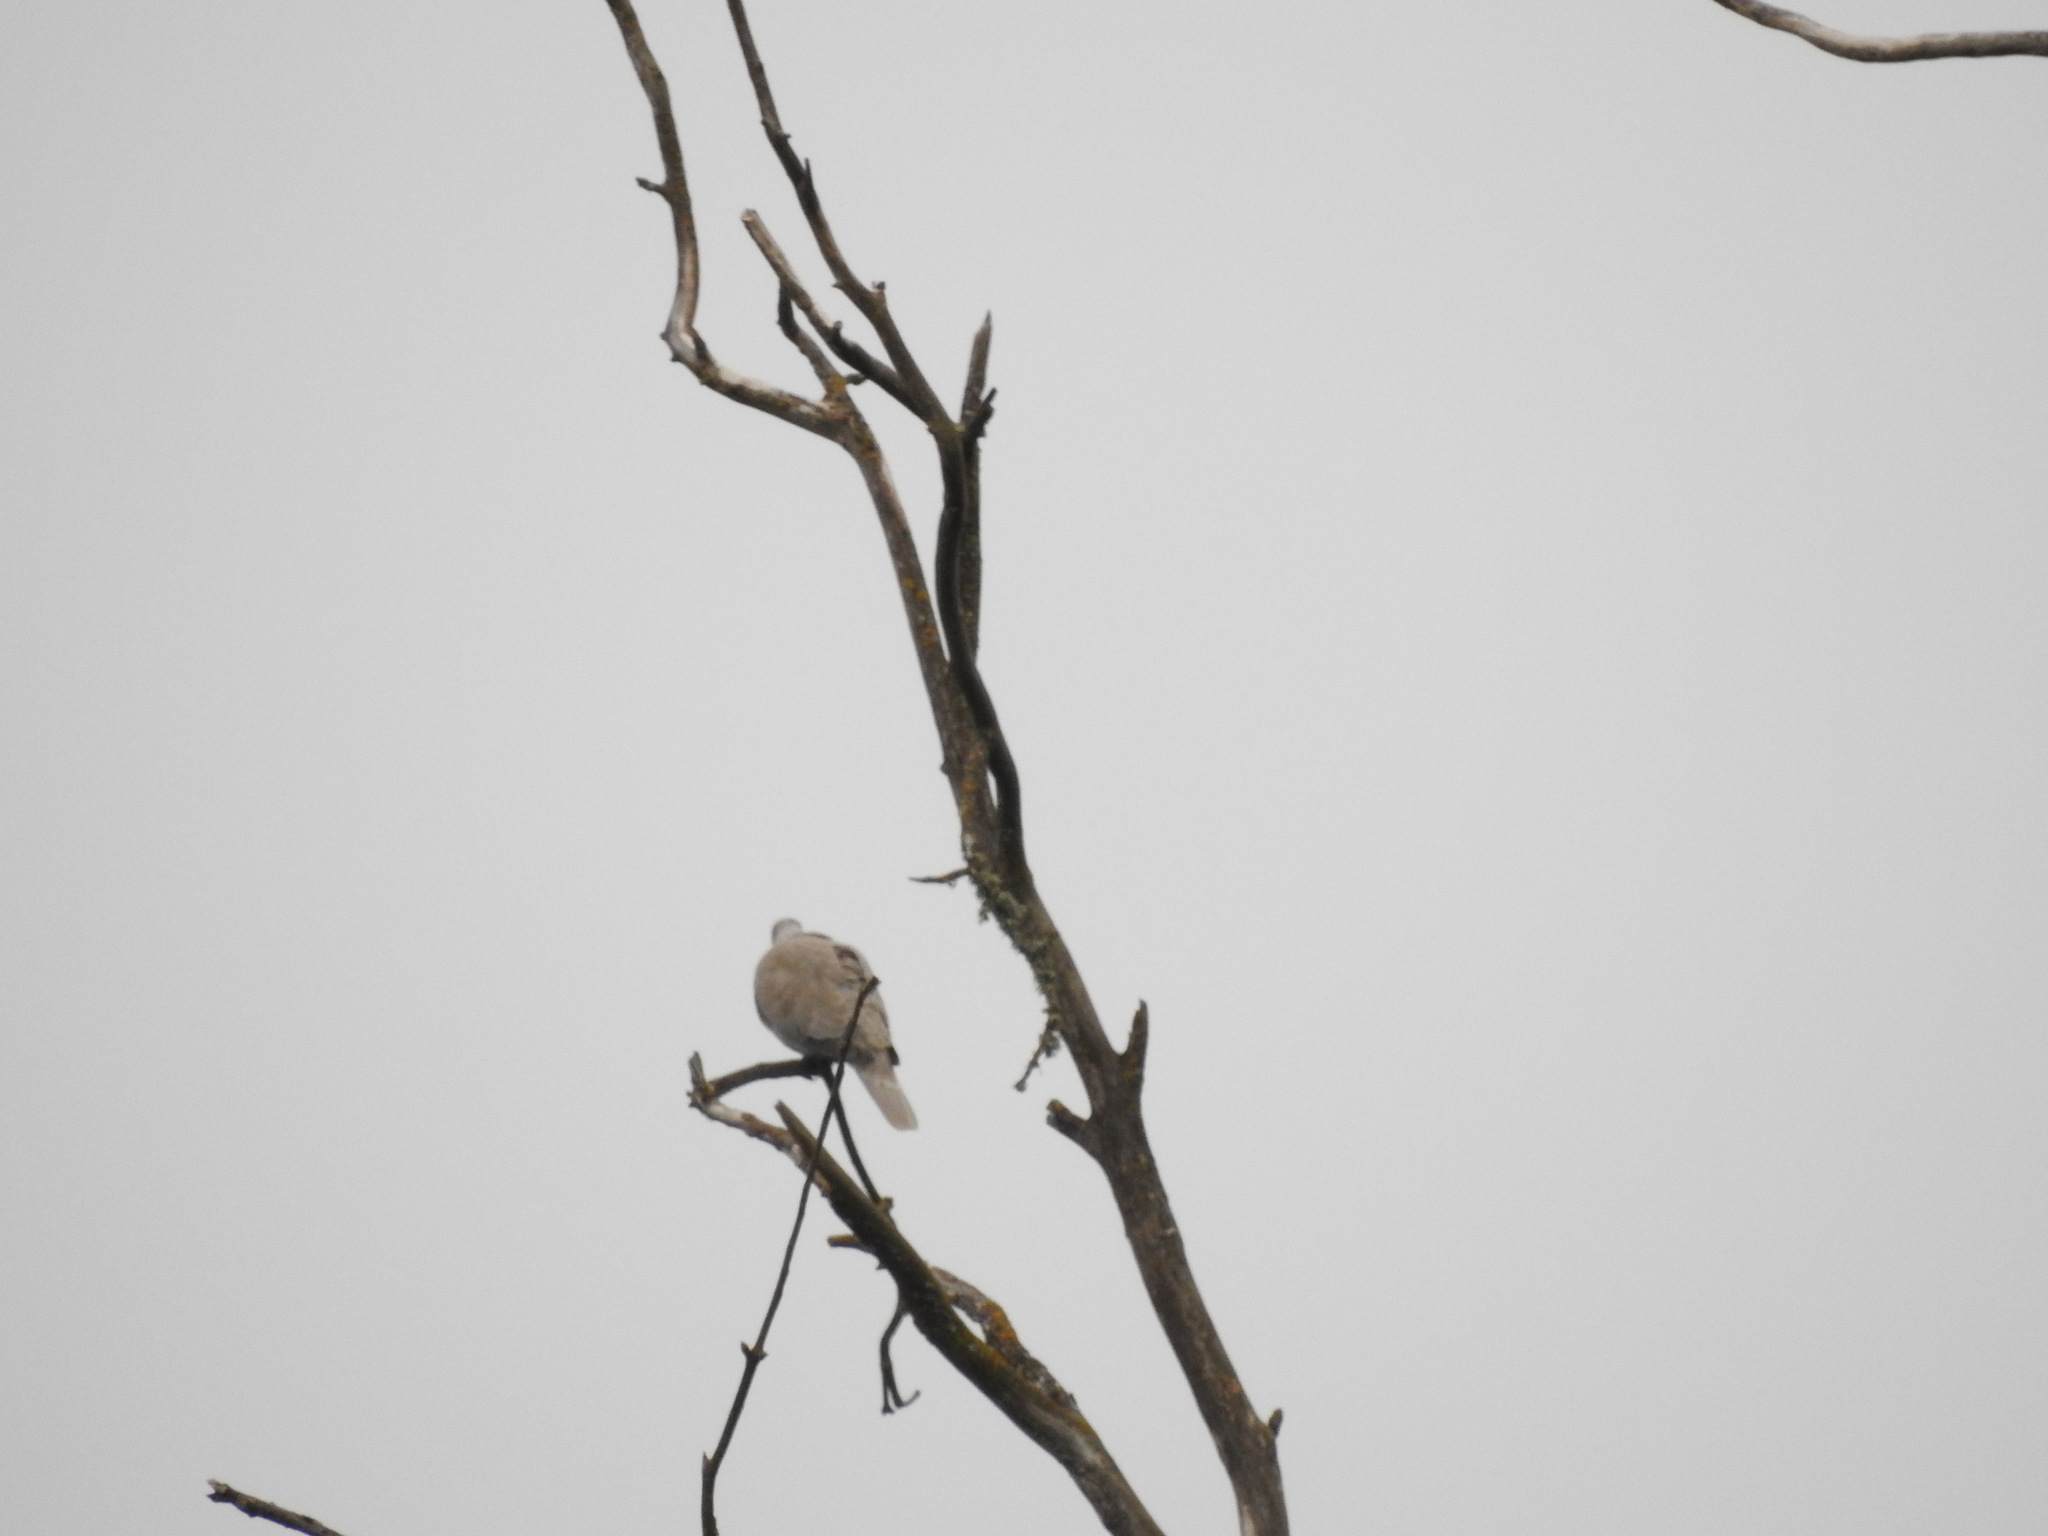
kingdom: Animalia
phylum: Chordata
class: Aves
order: Columbiformes
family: Columbidae
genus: Streptopelia
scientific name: Streptopelia decaocto
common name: Eurasian collared dove
